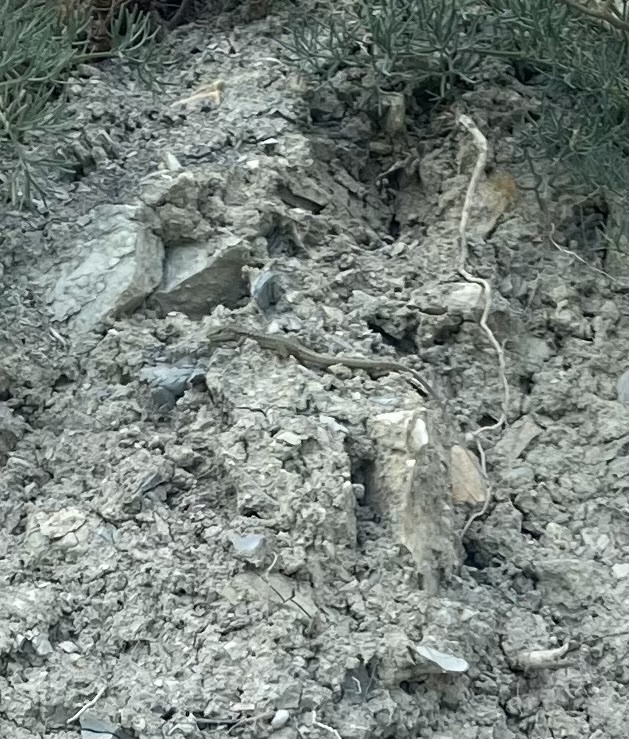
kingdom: Animalia
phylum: Chordata
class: Squamata
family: Lacertidae
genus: Darevskia
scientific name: Darevskia brauneri
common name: Brauner's rock lizard
